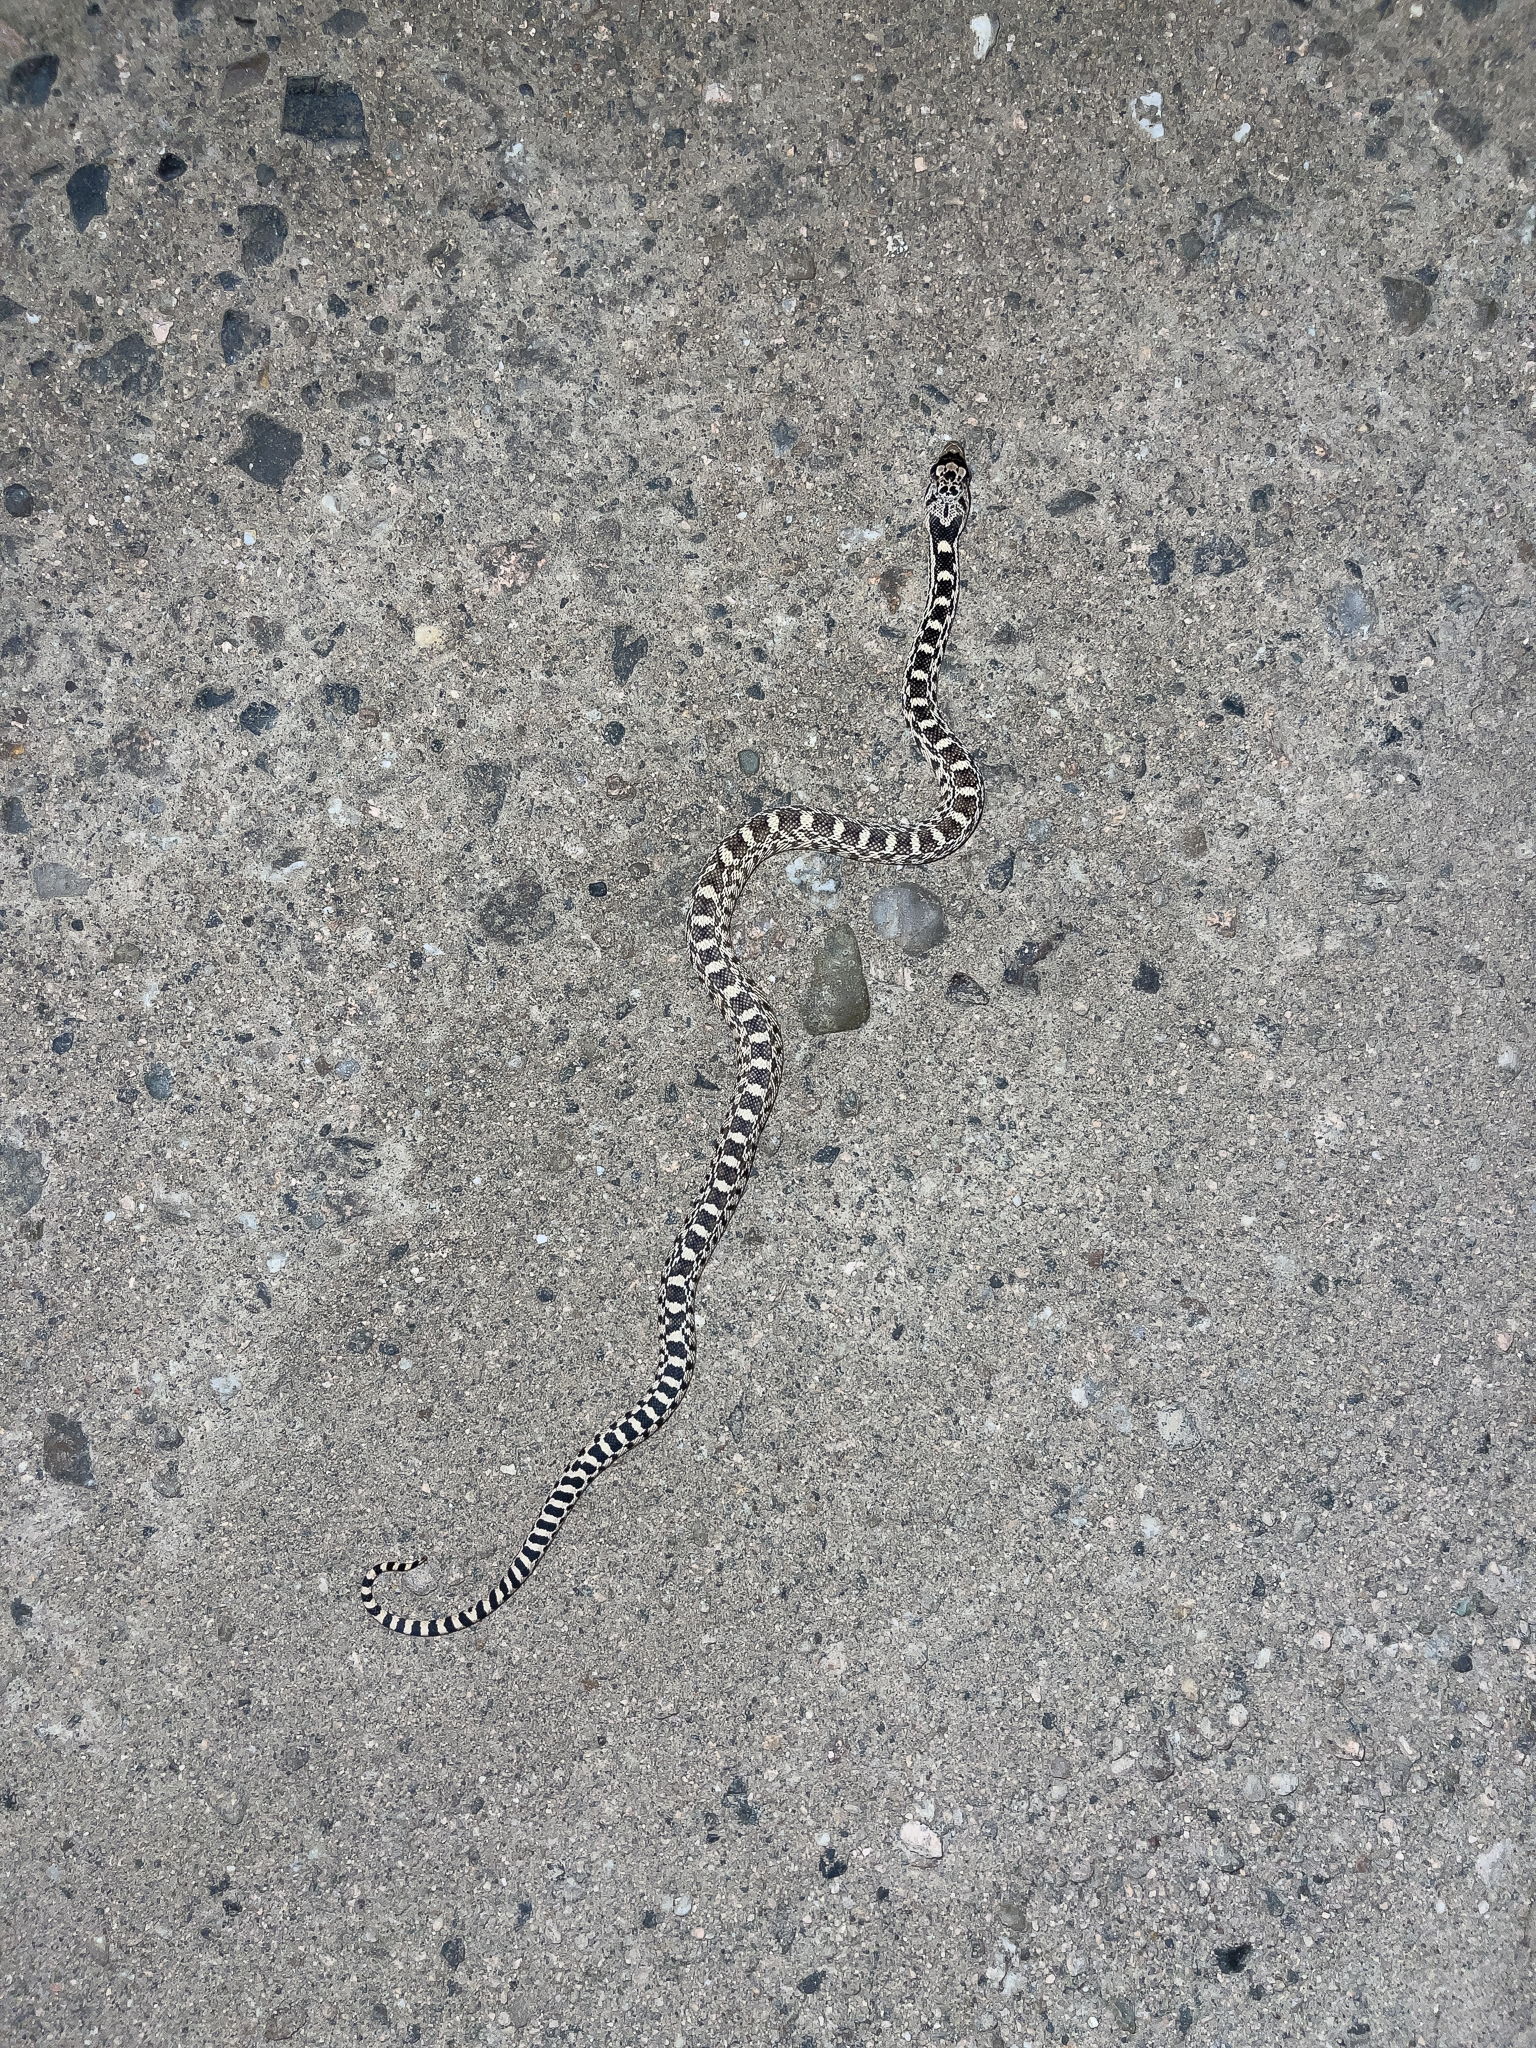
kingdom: Animalia
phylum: Chordata
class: Squamata
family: Colubridae
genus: Pituophis
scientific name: Pituophis catenifer
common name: Gopher snake
